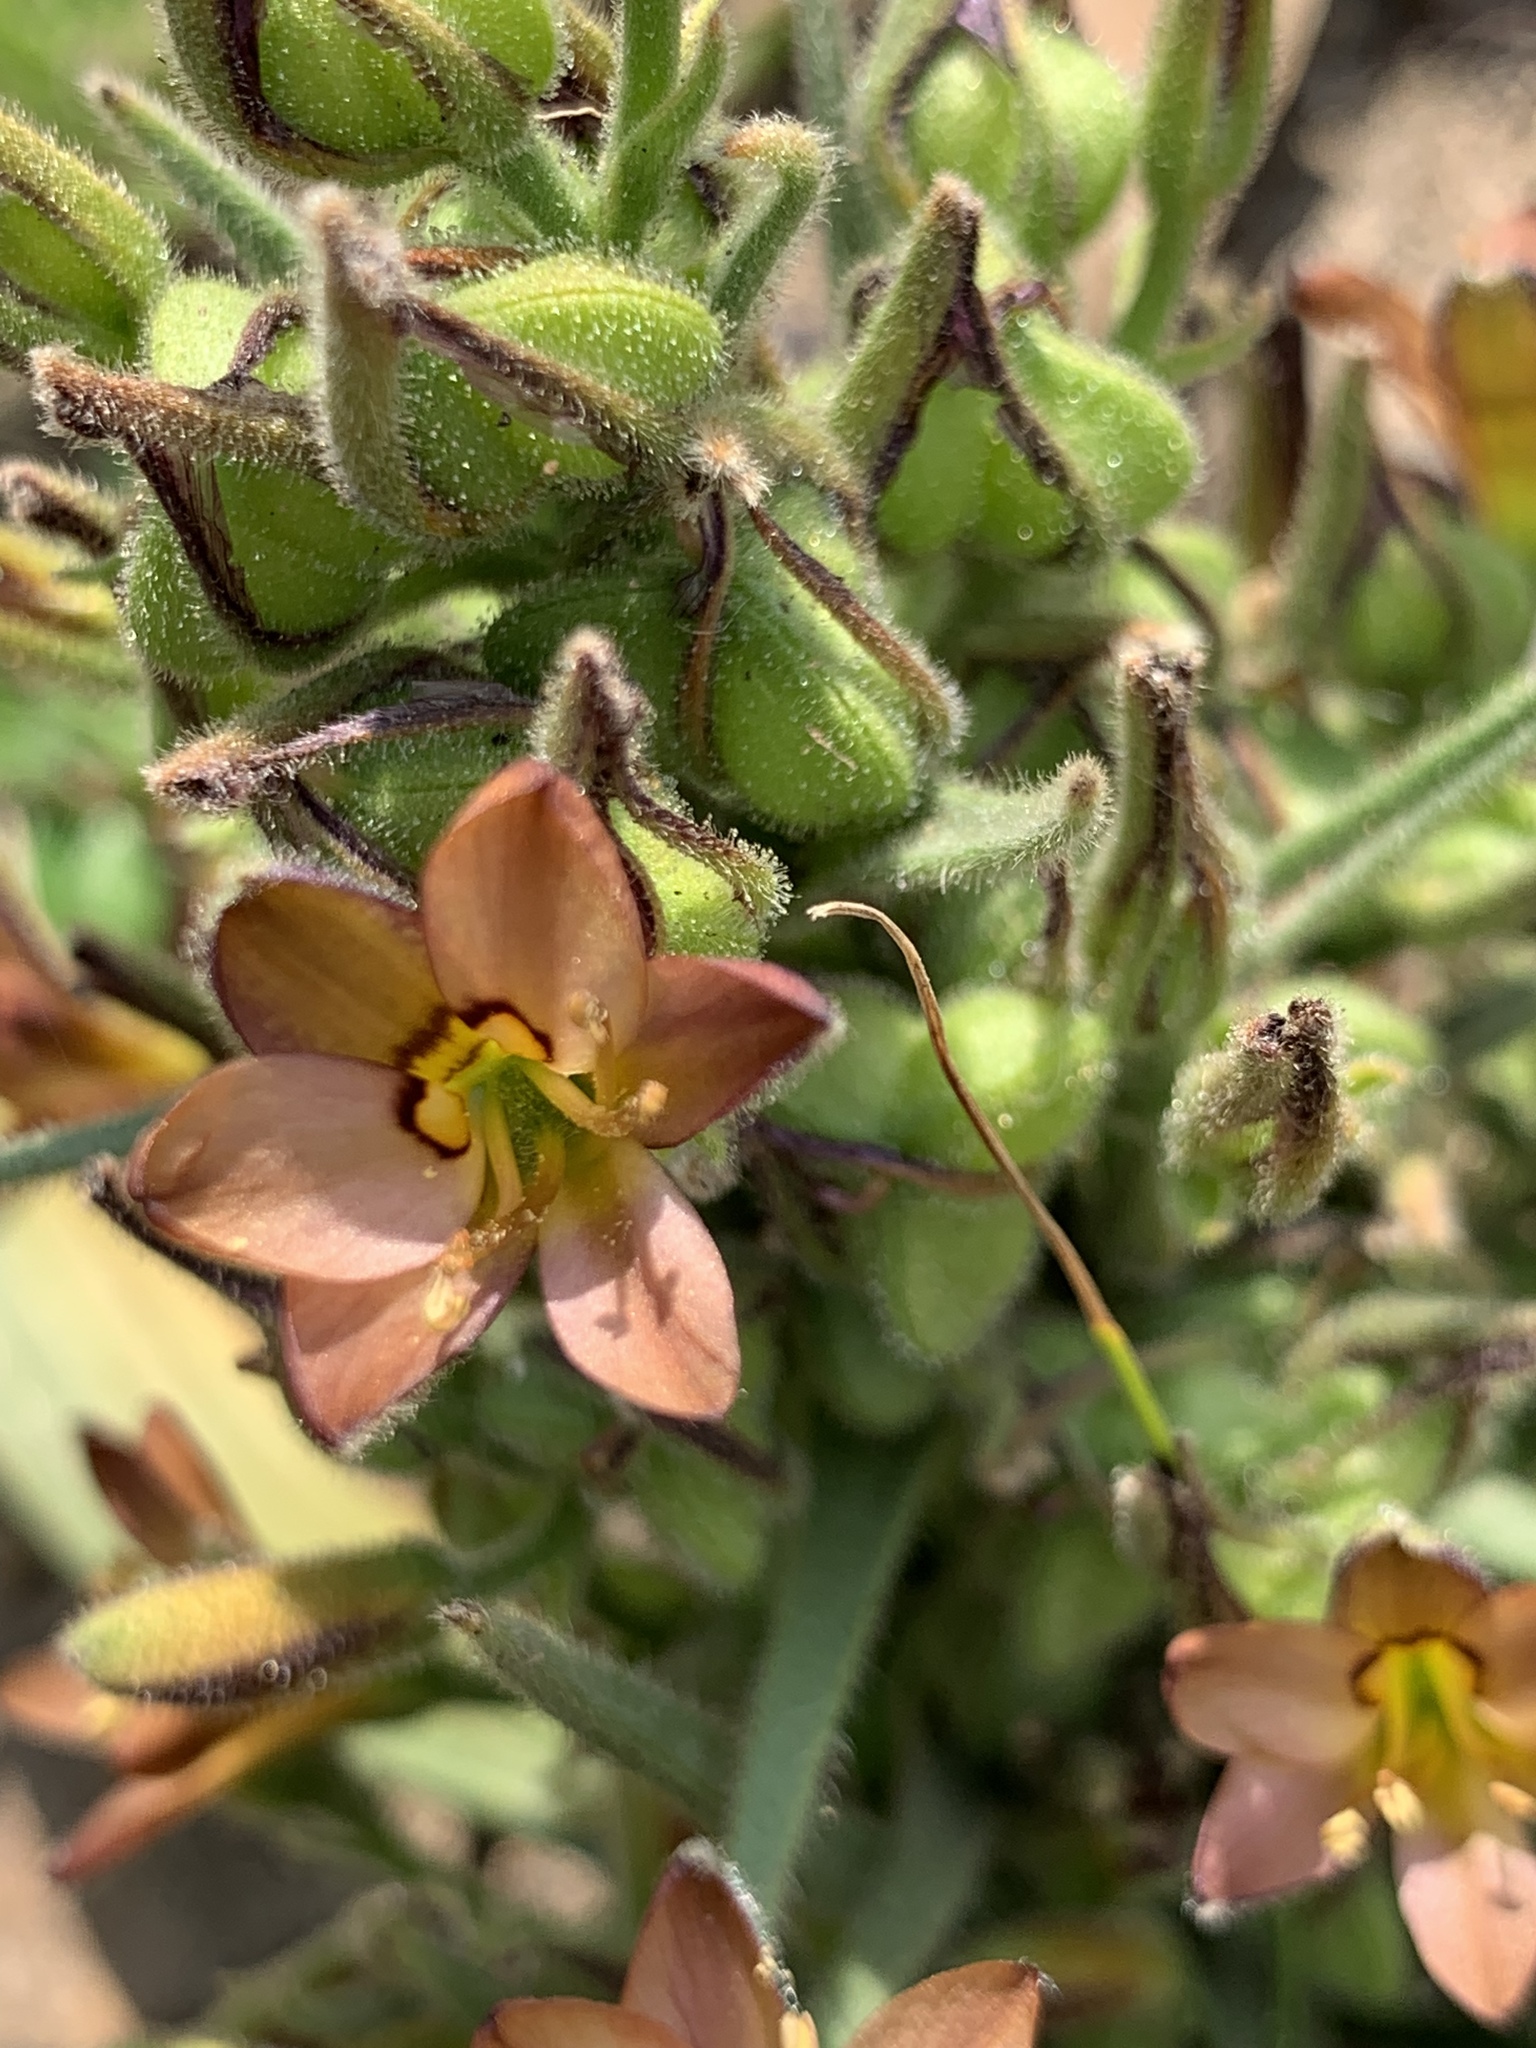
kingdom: Plantae
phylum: Tracheophyta
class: Liliopsida
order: Commelinales
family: Haemodoraceae
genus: Wachendorfia
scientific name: Wachendorfia multiflora
